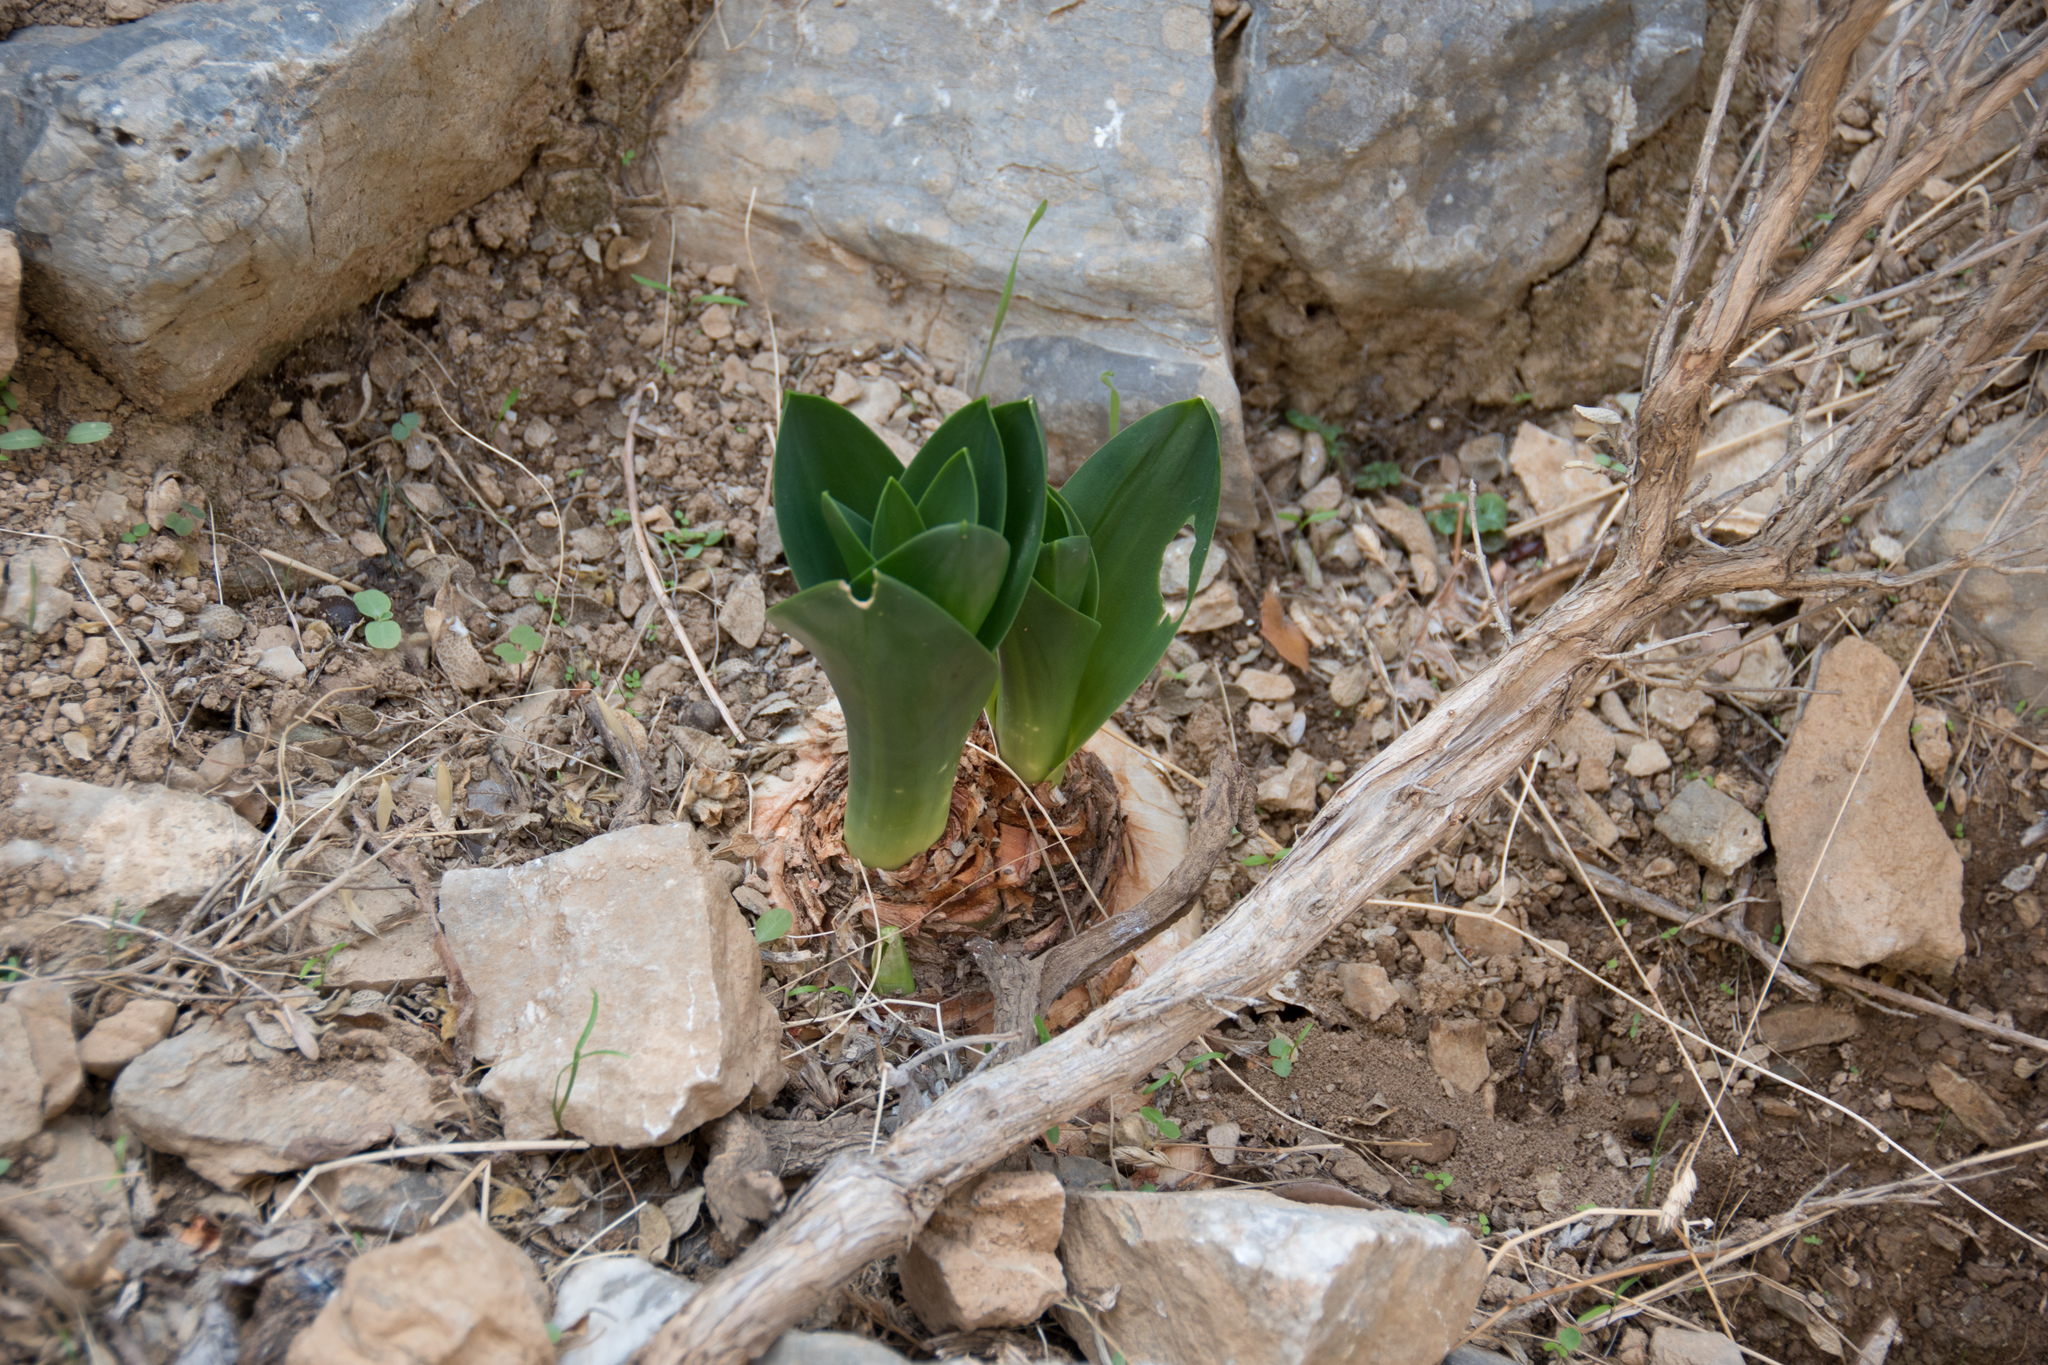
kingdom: Plantae
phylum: Tracheophyta
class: Liliopsida
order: Asparagales
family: Asparagaceae
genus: Drimia
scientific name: Drimia numidica
